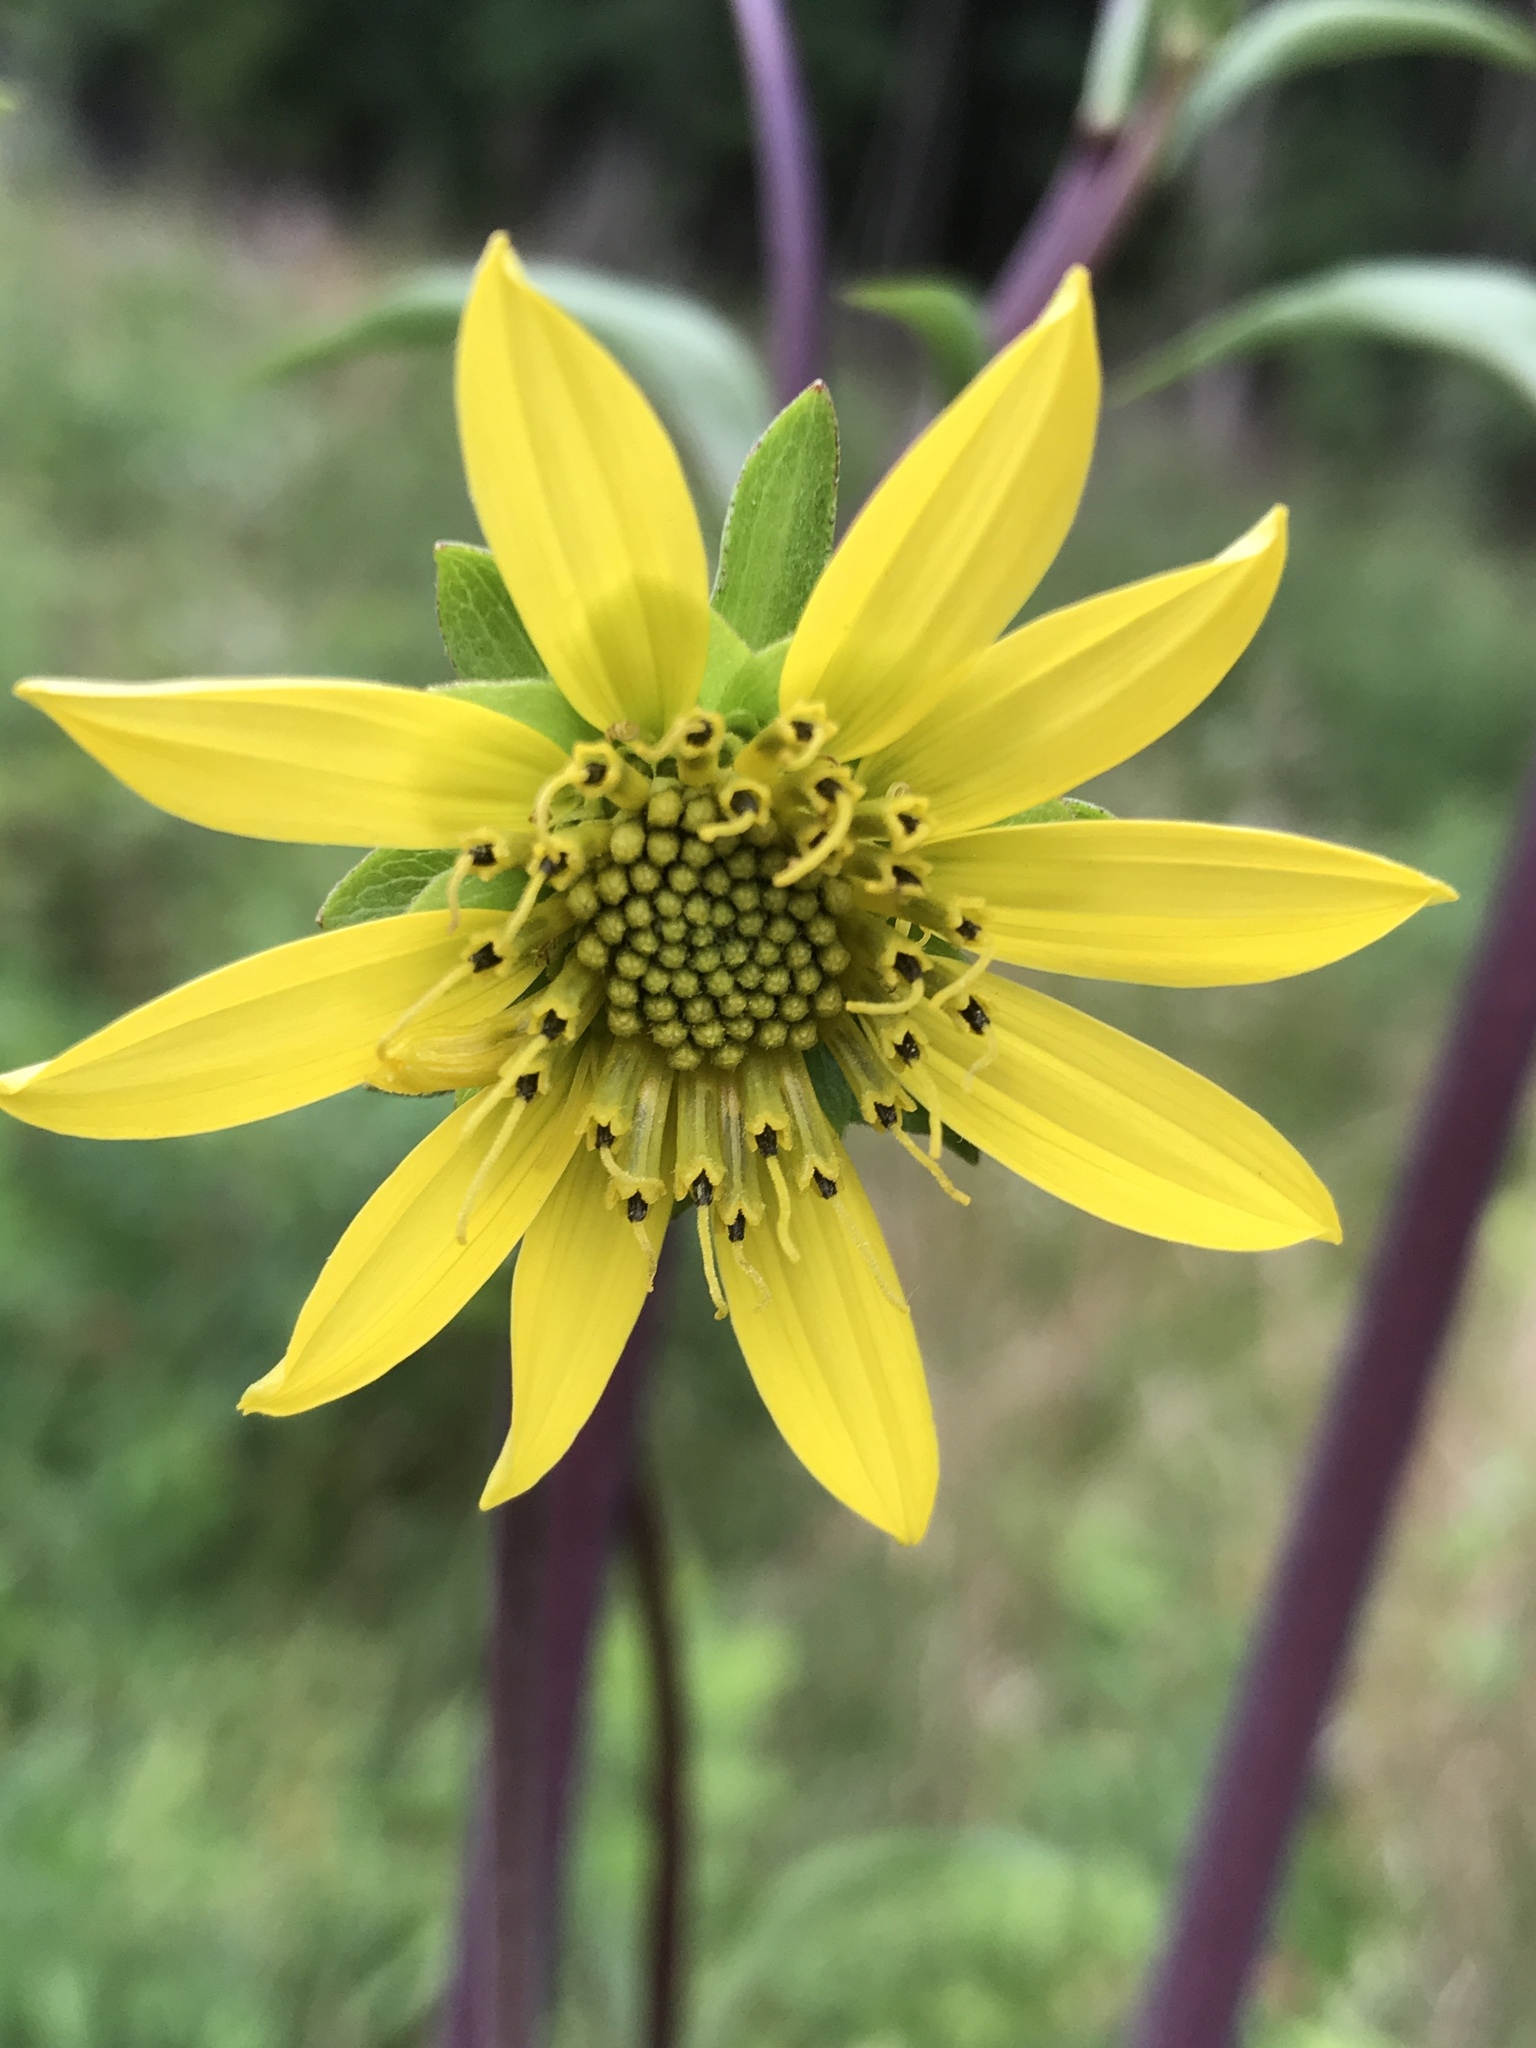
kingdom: Plantae
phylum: Tracheophyta
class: Magnoliopsida
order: Asterales
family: Asteraceae
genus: Silphium
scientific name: Silphium compositum
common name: Lesser basal-leaf rosinweed
